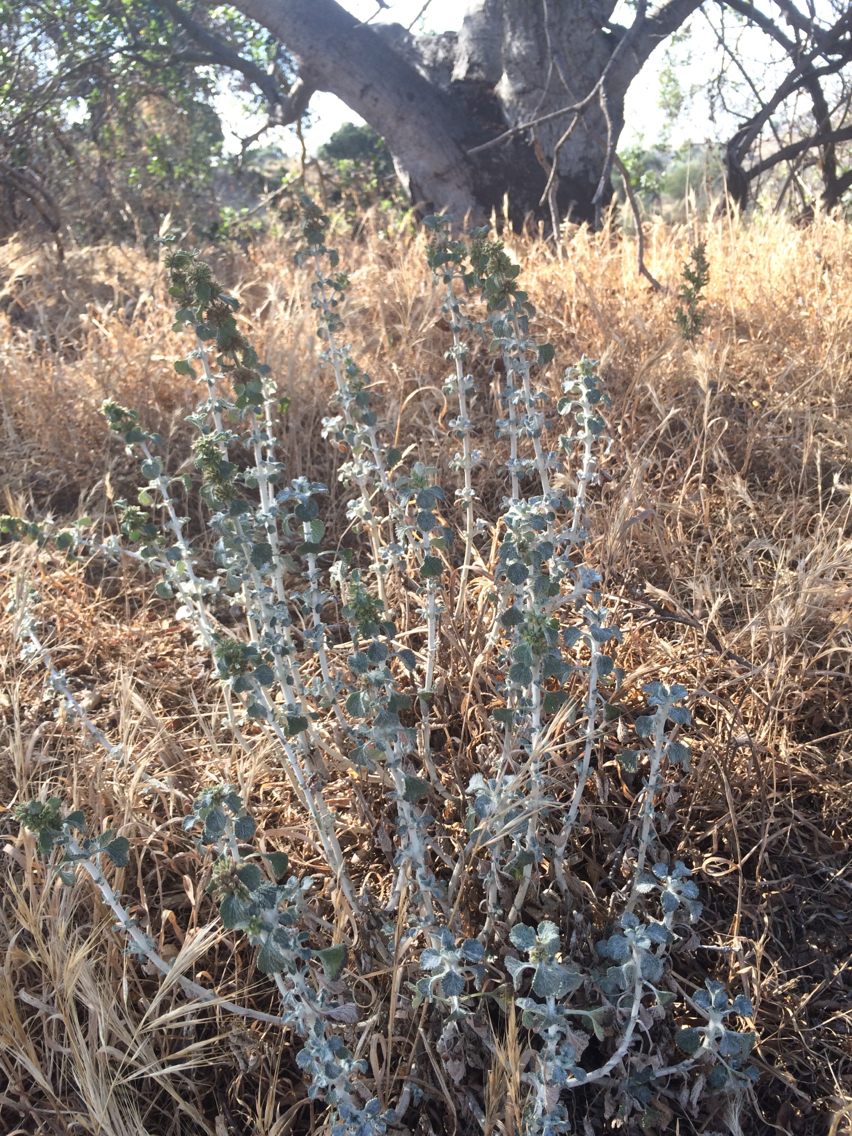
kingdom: Plantae
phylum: Tracheophyta
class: Magnoliopsida
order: Lamiales
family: Lamiaceae
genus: Marrubium
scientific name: Marrubium vulgare
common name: Horehound
